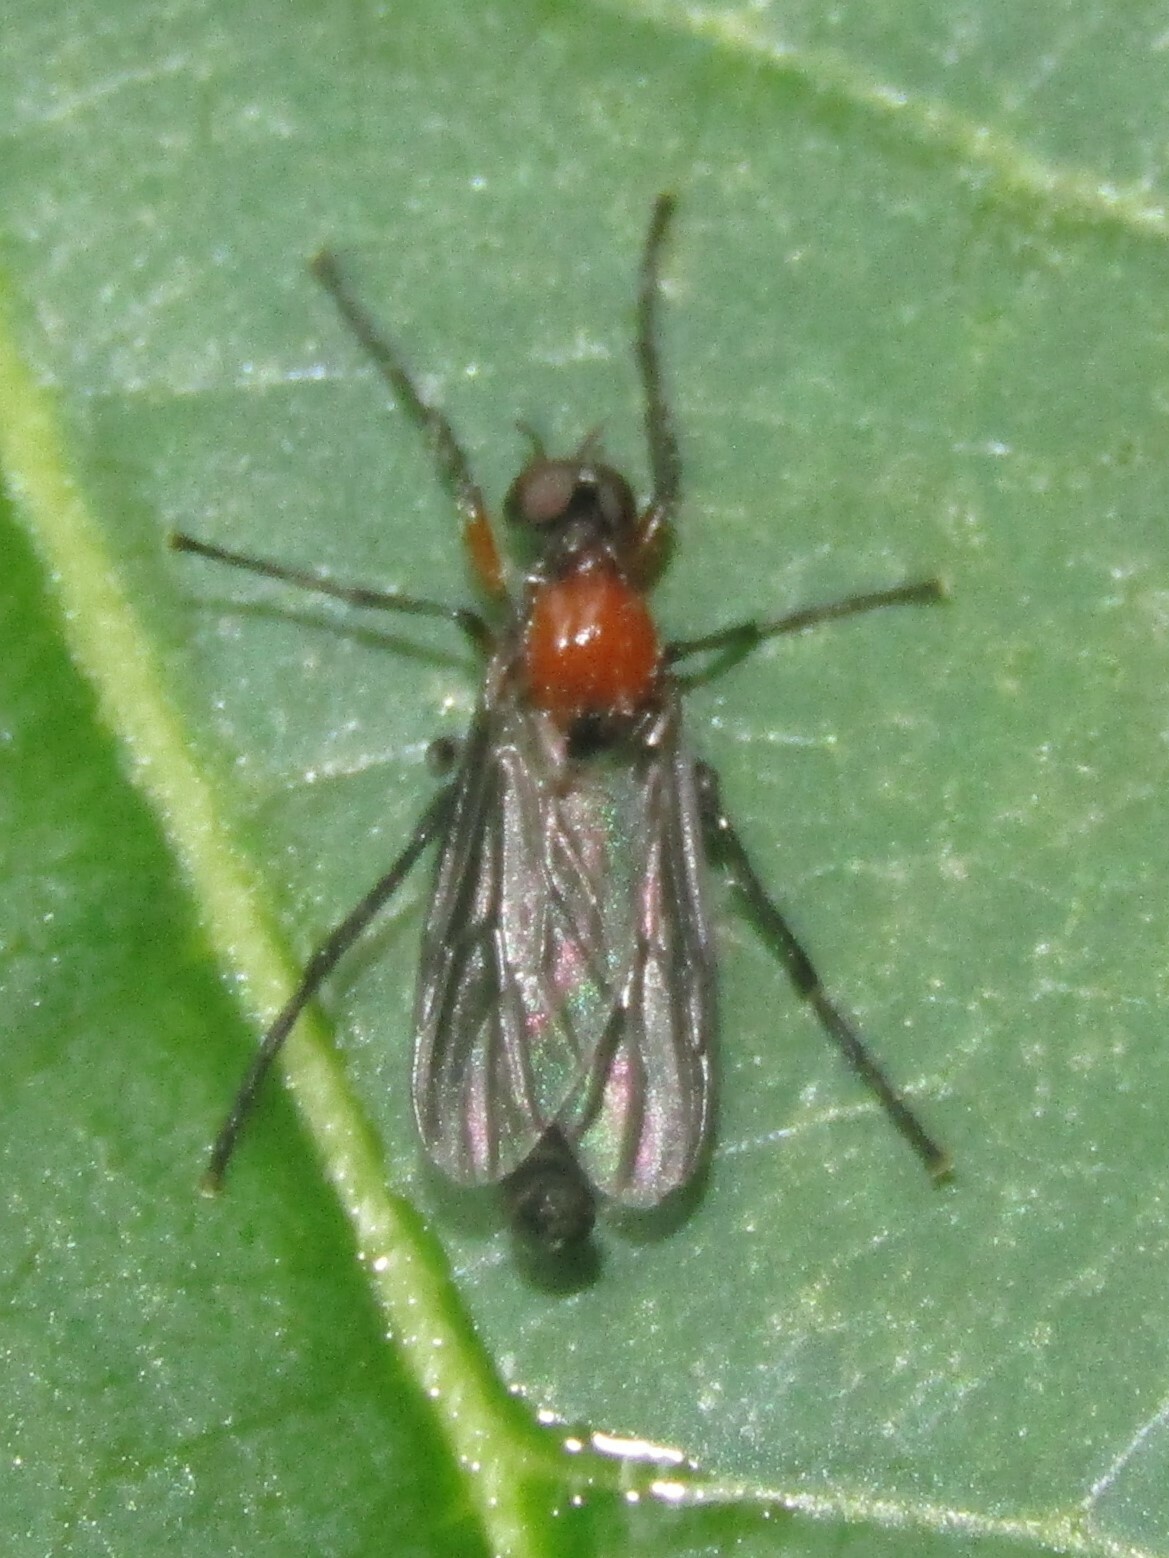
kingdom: Animalia
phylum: Arthropoda
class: Insecta
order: Diptera
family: Bibionidae
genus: Dilophus
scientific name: Dilophus spinipes
